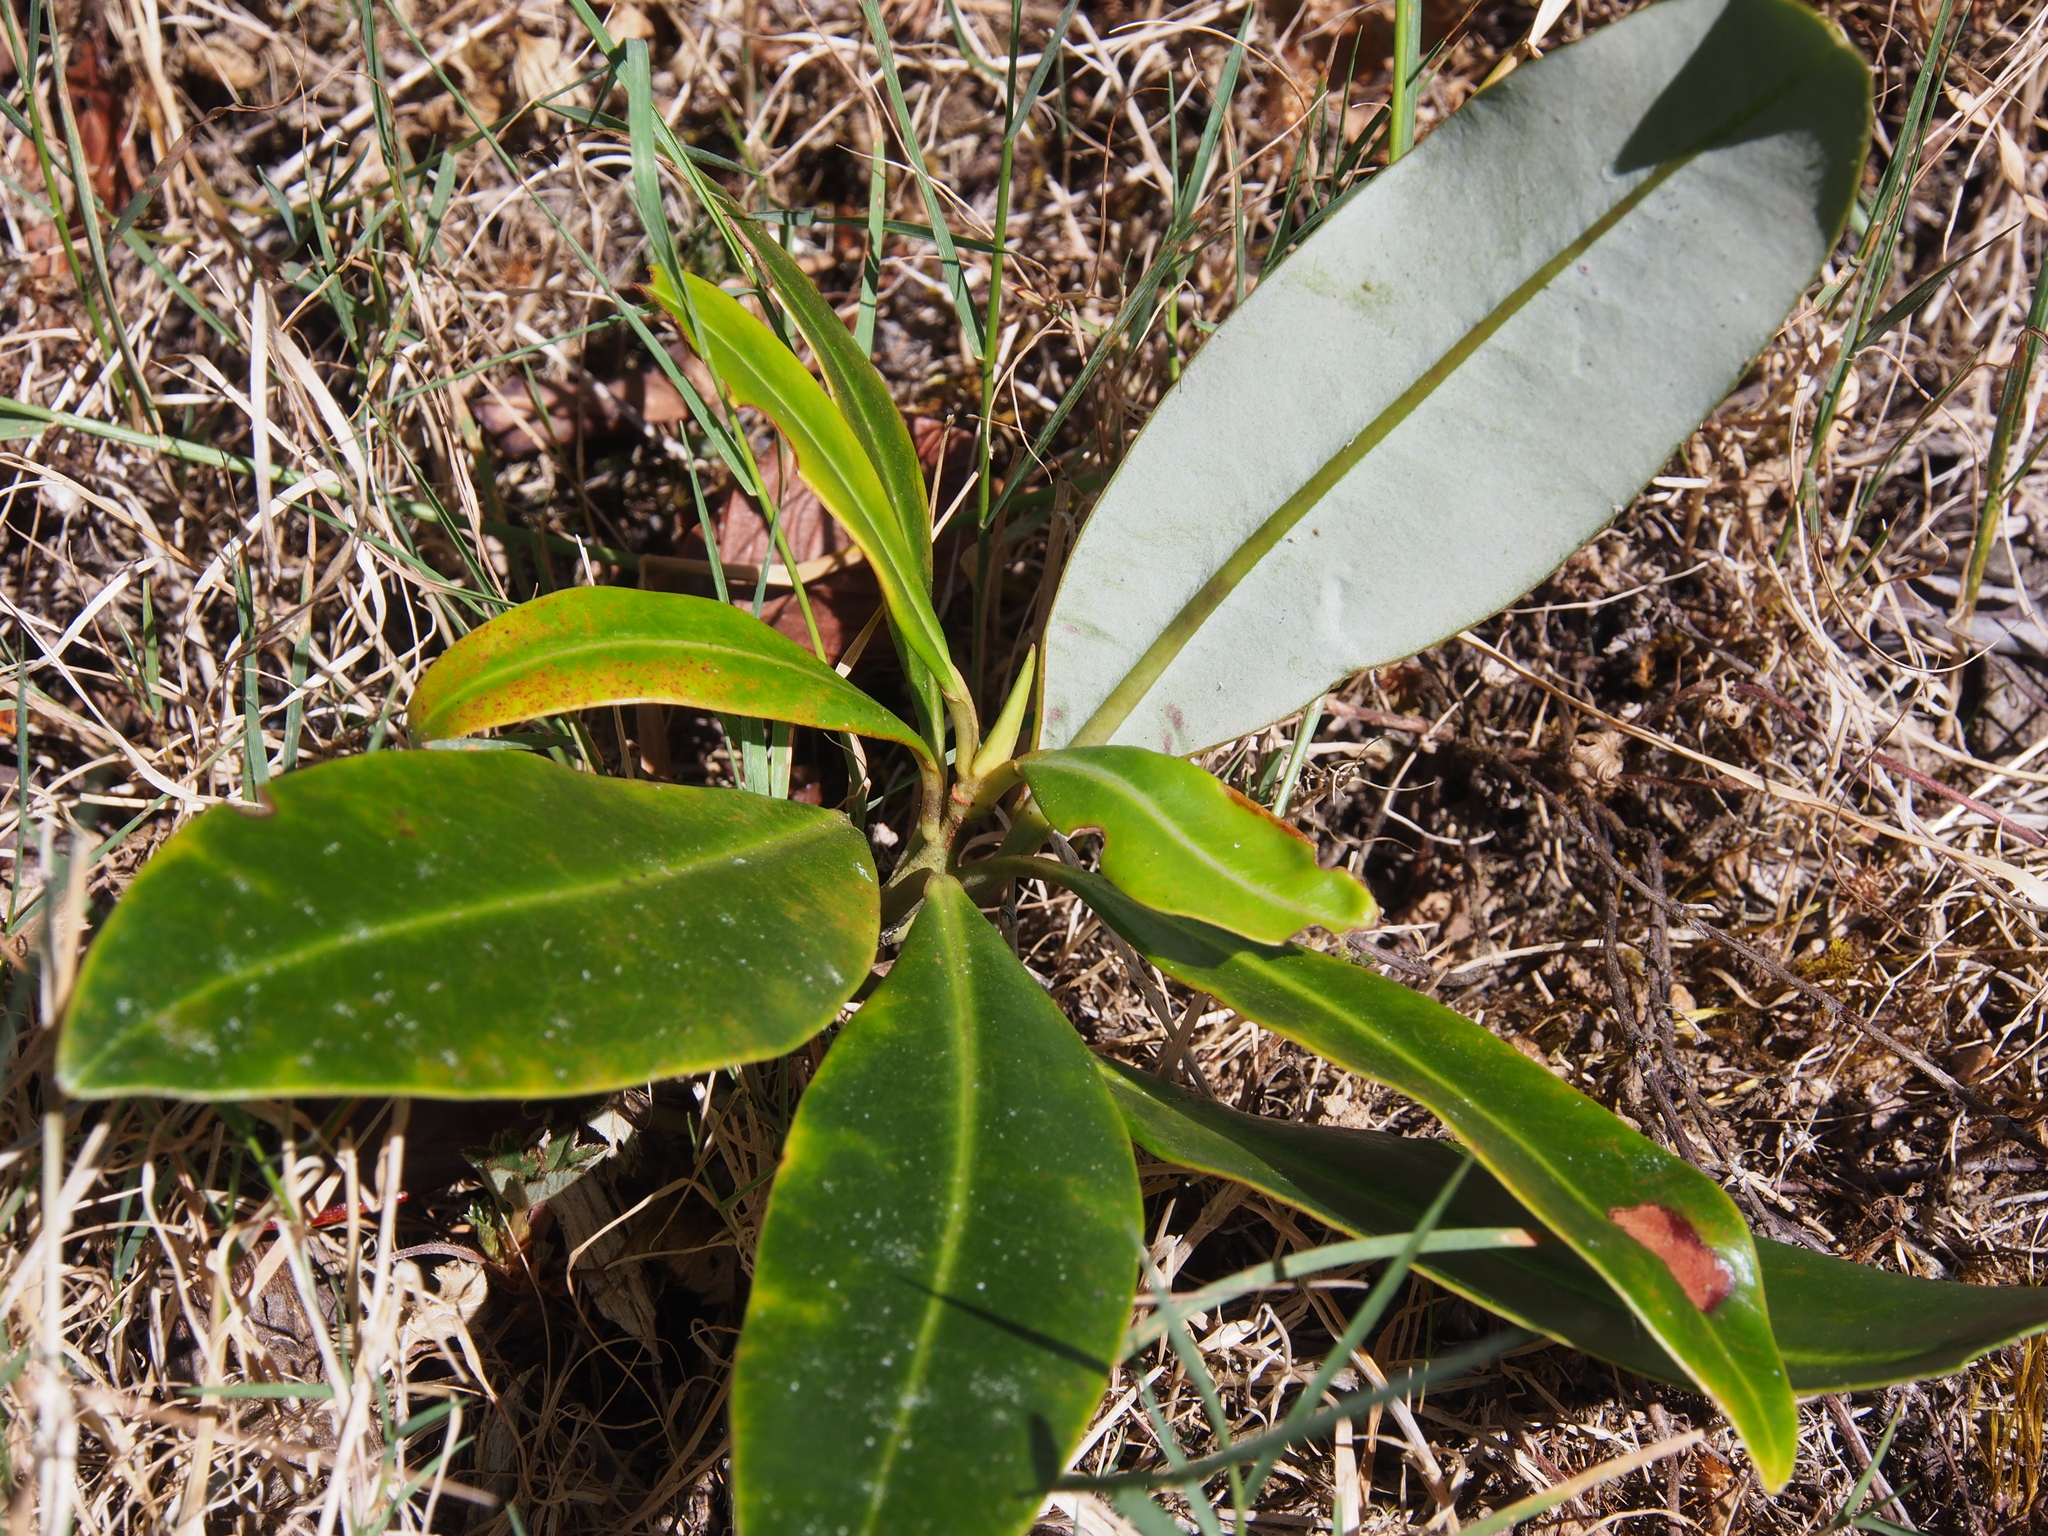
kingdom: Plantae
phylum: Tracheophyta
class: Magnoliopsida
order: Canellales
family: Winteraceae
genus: Drimys
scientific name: Drimys granadensis
